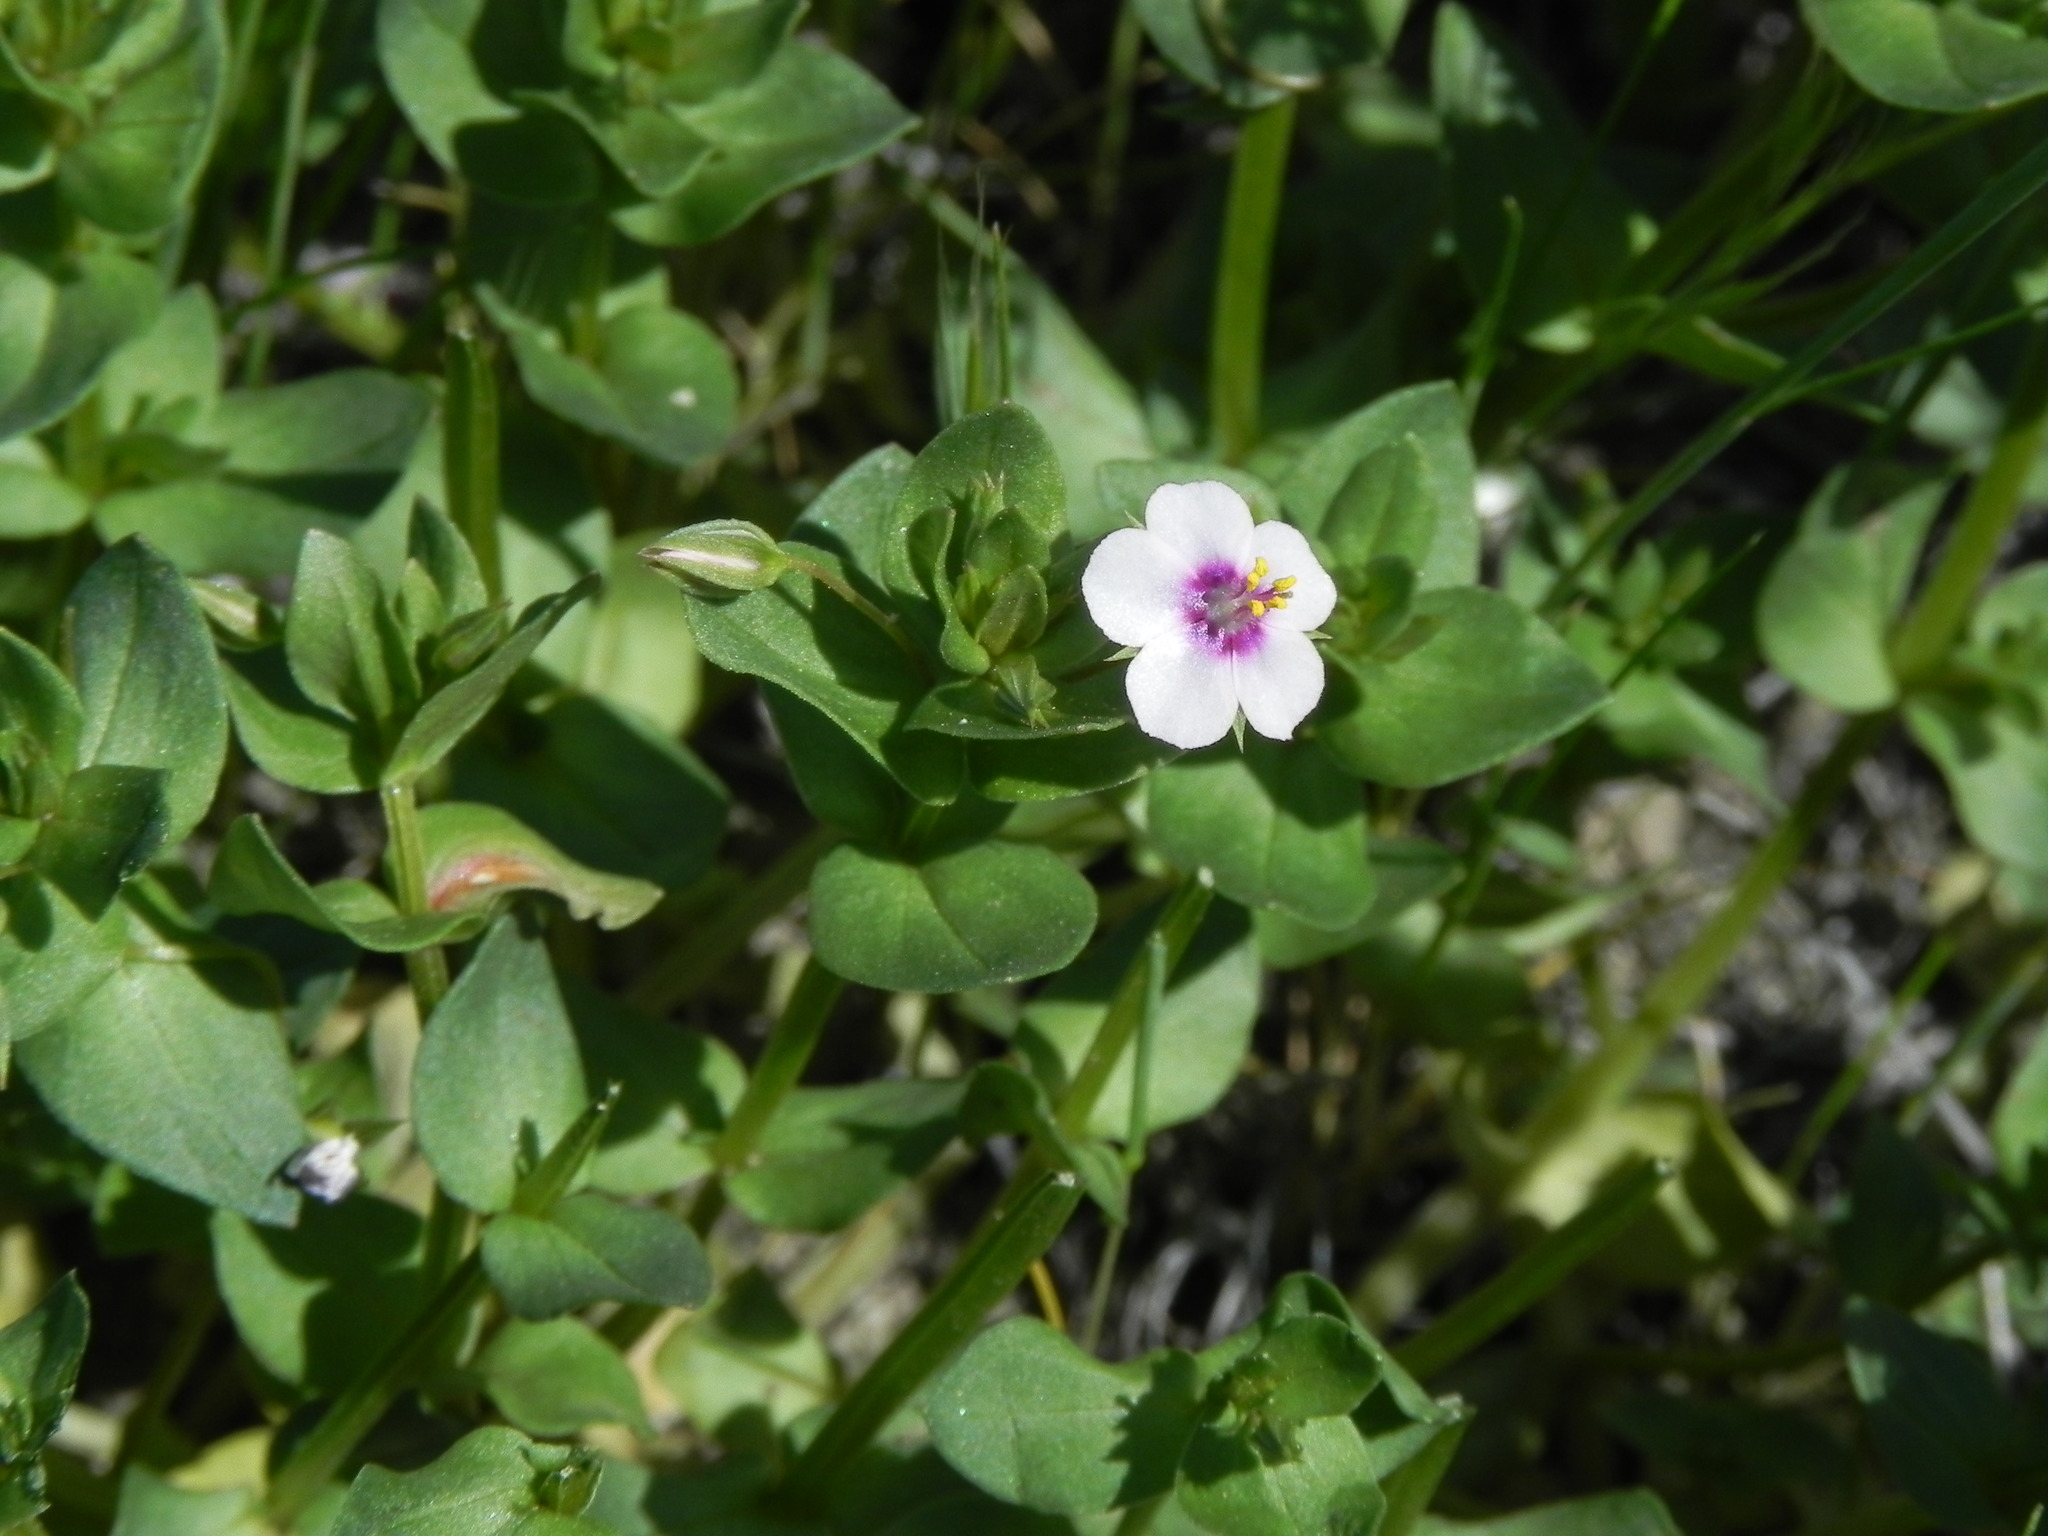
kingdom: Plantae
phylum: Tracheophyta
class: Magnoliopsida
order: Ericales
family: Primulaceae
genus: Lysimachia
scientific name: Lysimachia
